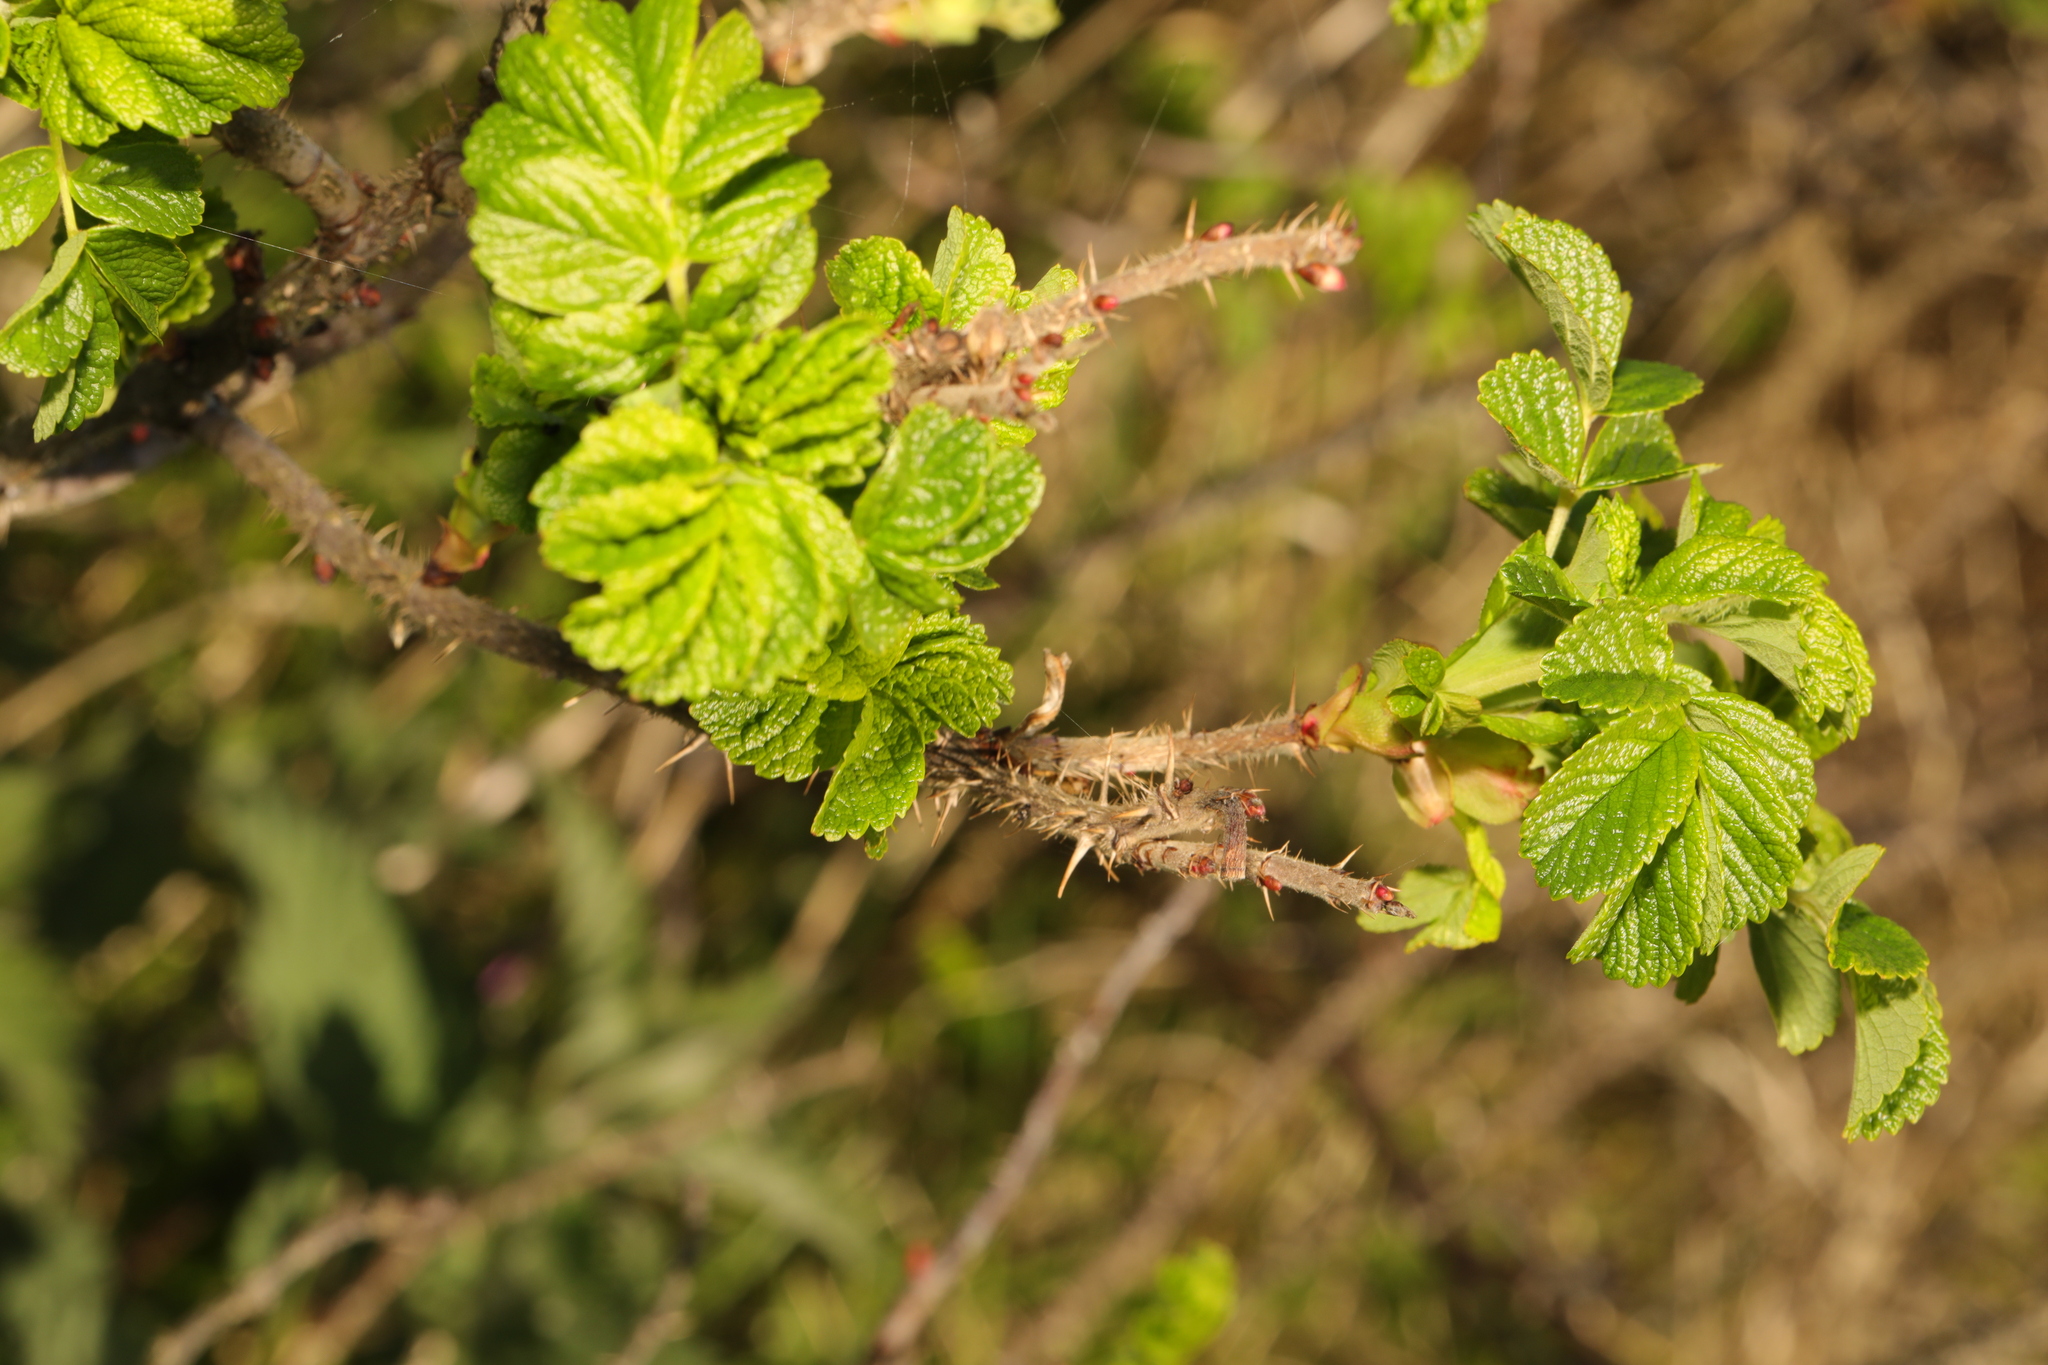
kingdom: Plantae
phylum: Tracheophyta
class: Magnoliopsida
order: Rosales
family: Rosaceae
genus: Rosa
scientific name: Rosa rugosa
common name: Japanese rose
